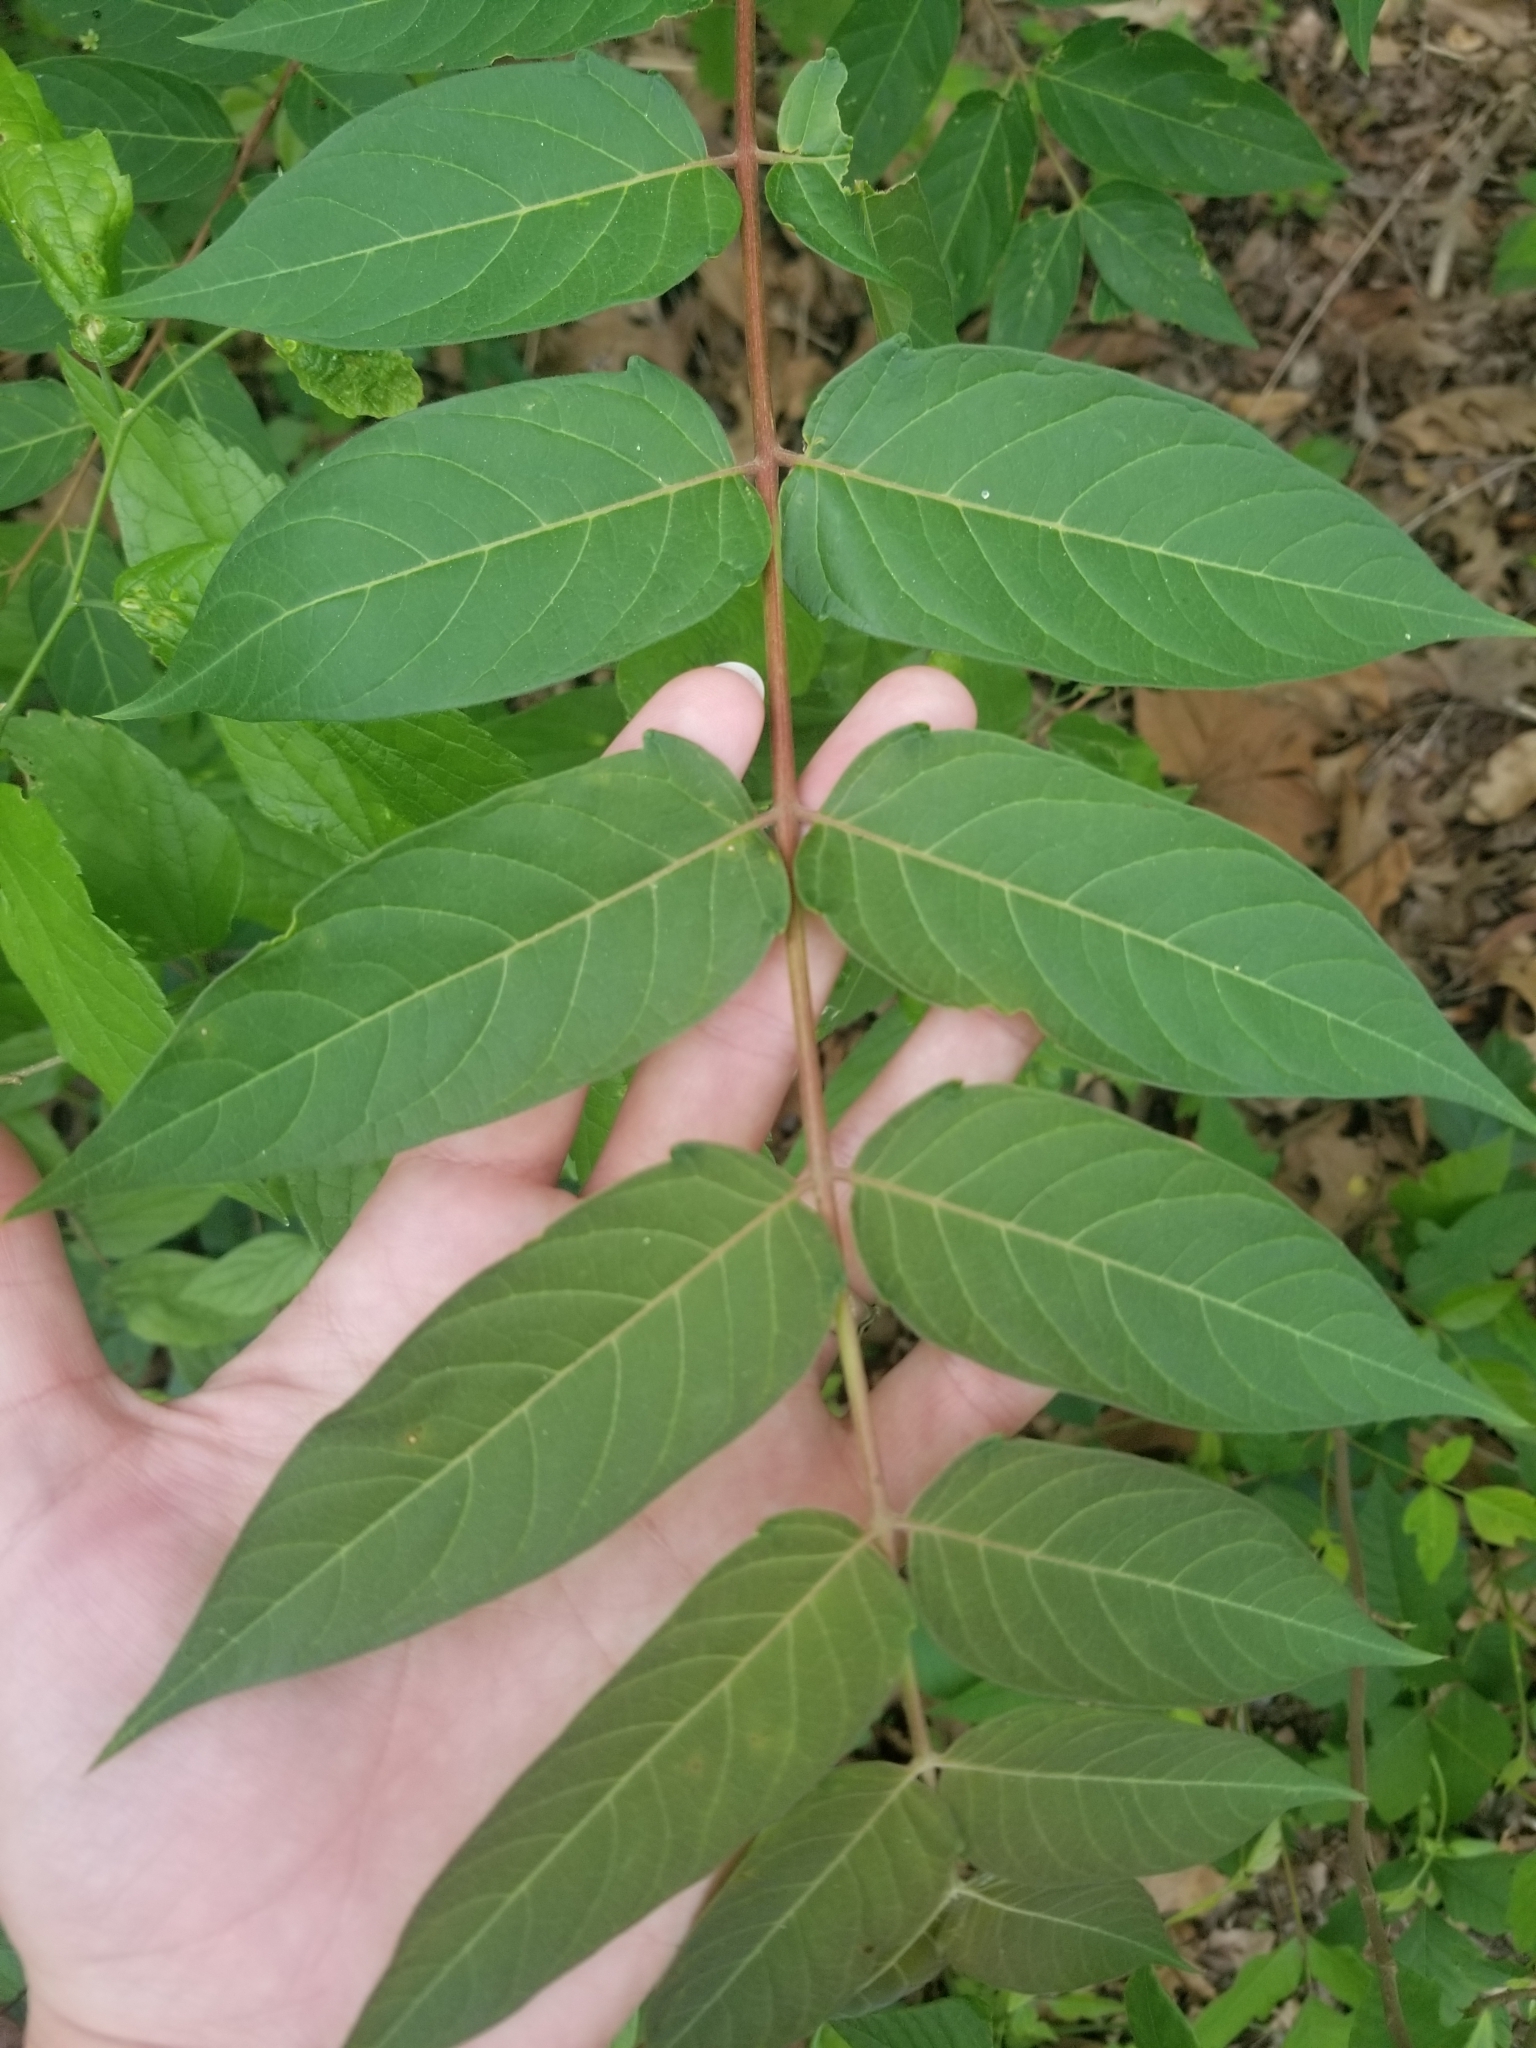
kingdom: Plantae
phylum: Tracheophyta
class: Magnoliopsida
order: Sapindales
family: Simaroubaceae
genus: Ailanthus
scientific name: Ailanthus altissima
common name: Tree-of-heaven
